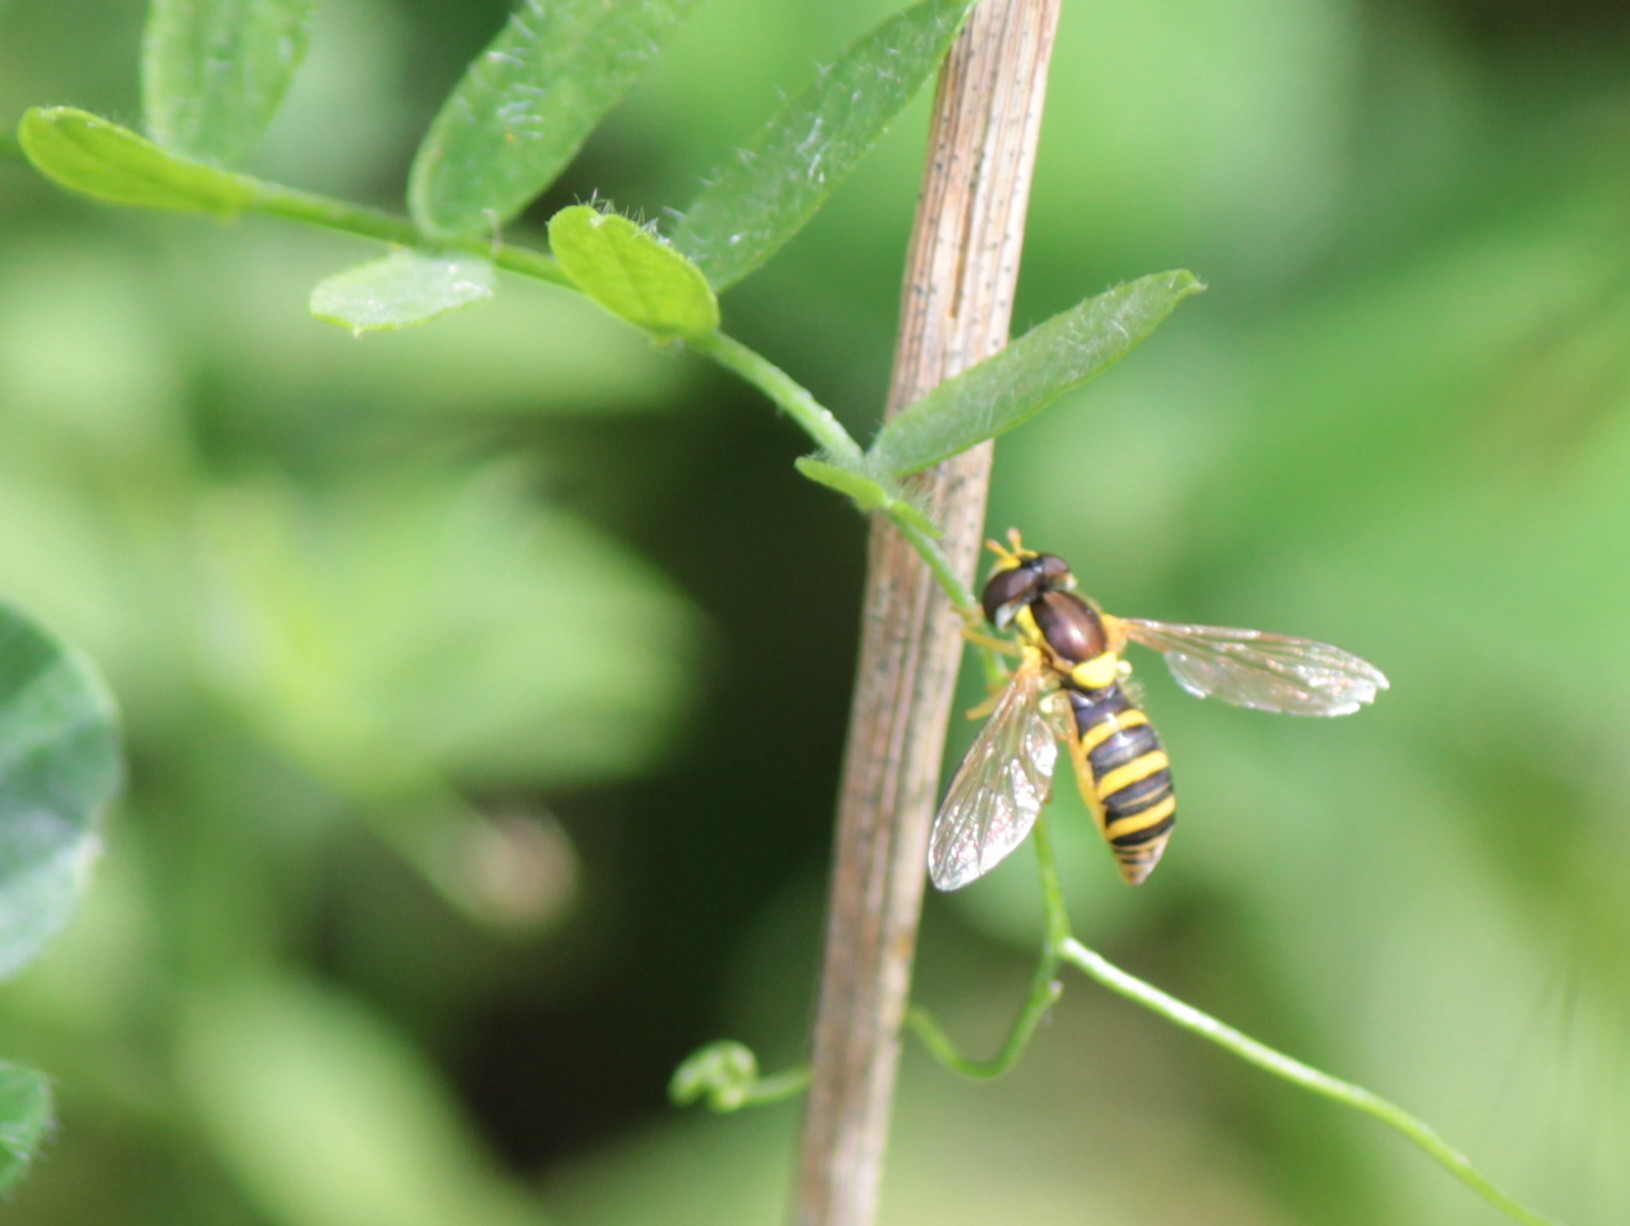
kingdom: Animalia
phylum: Arthropoda
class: Insecta
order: Diptera
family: Syrphidae
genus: Sphaerophoria
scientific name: Sphaerophoria
